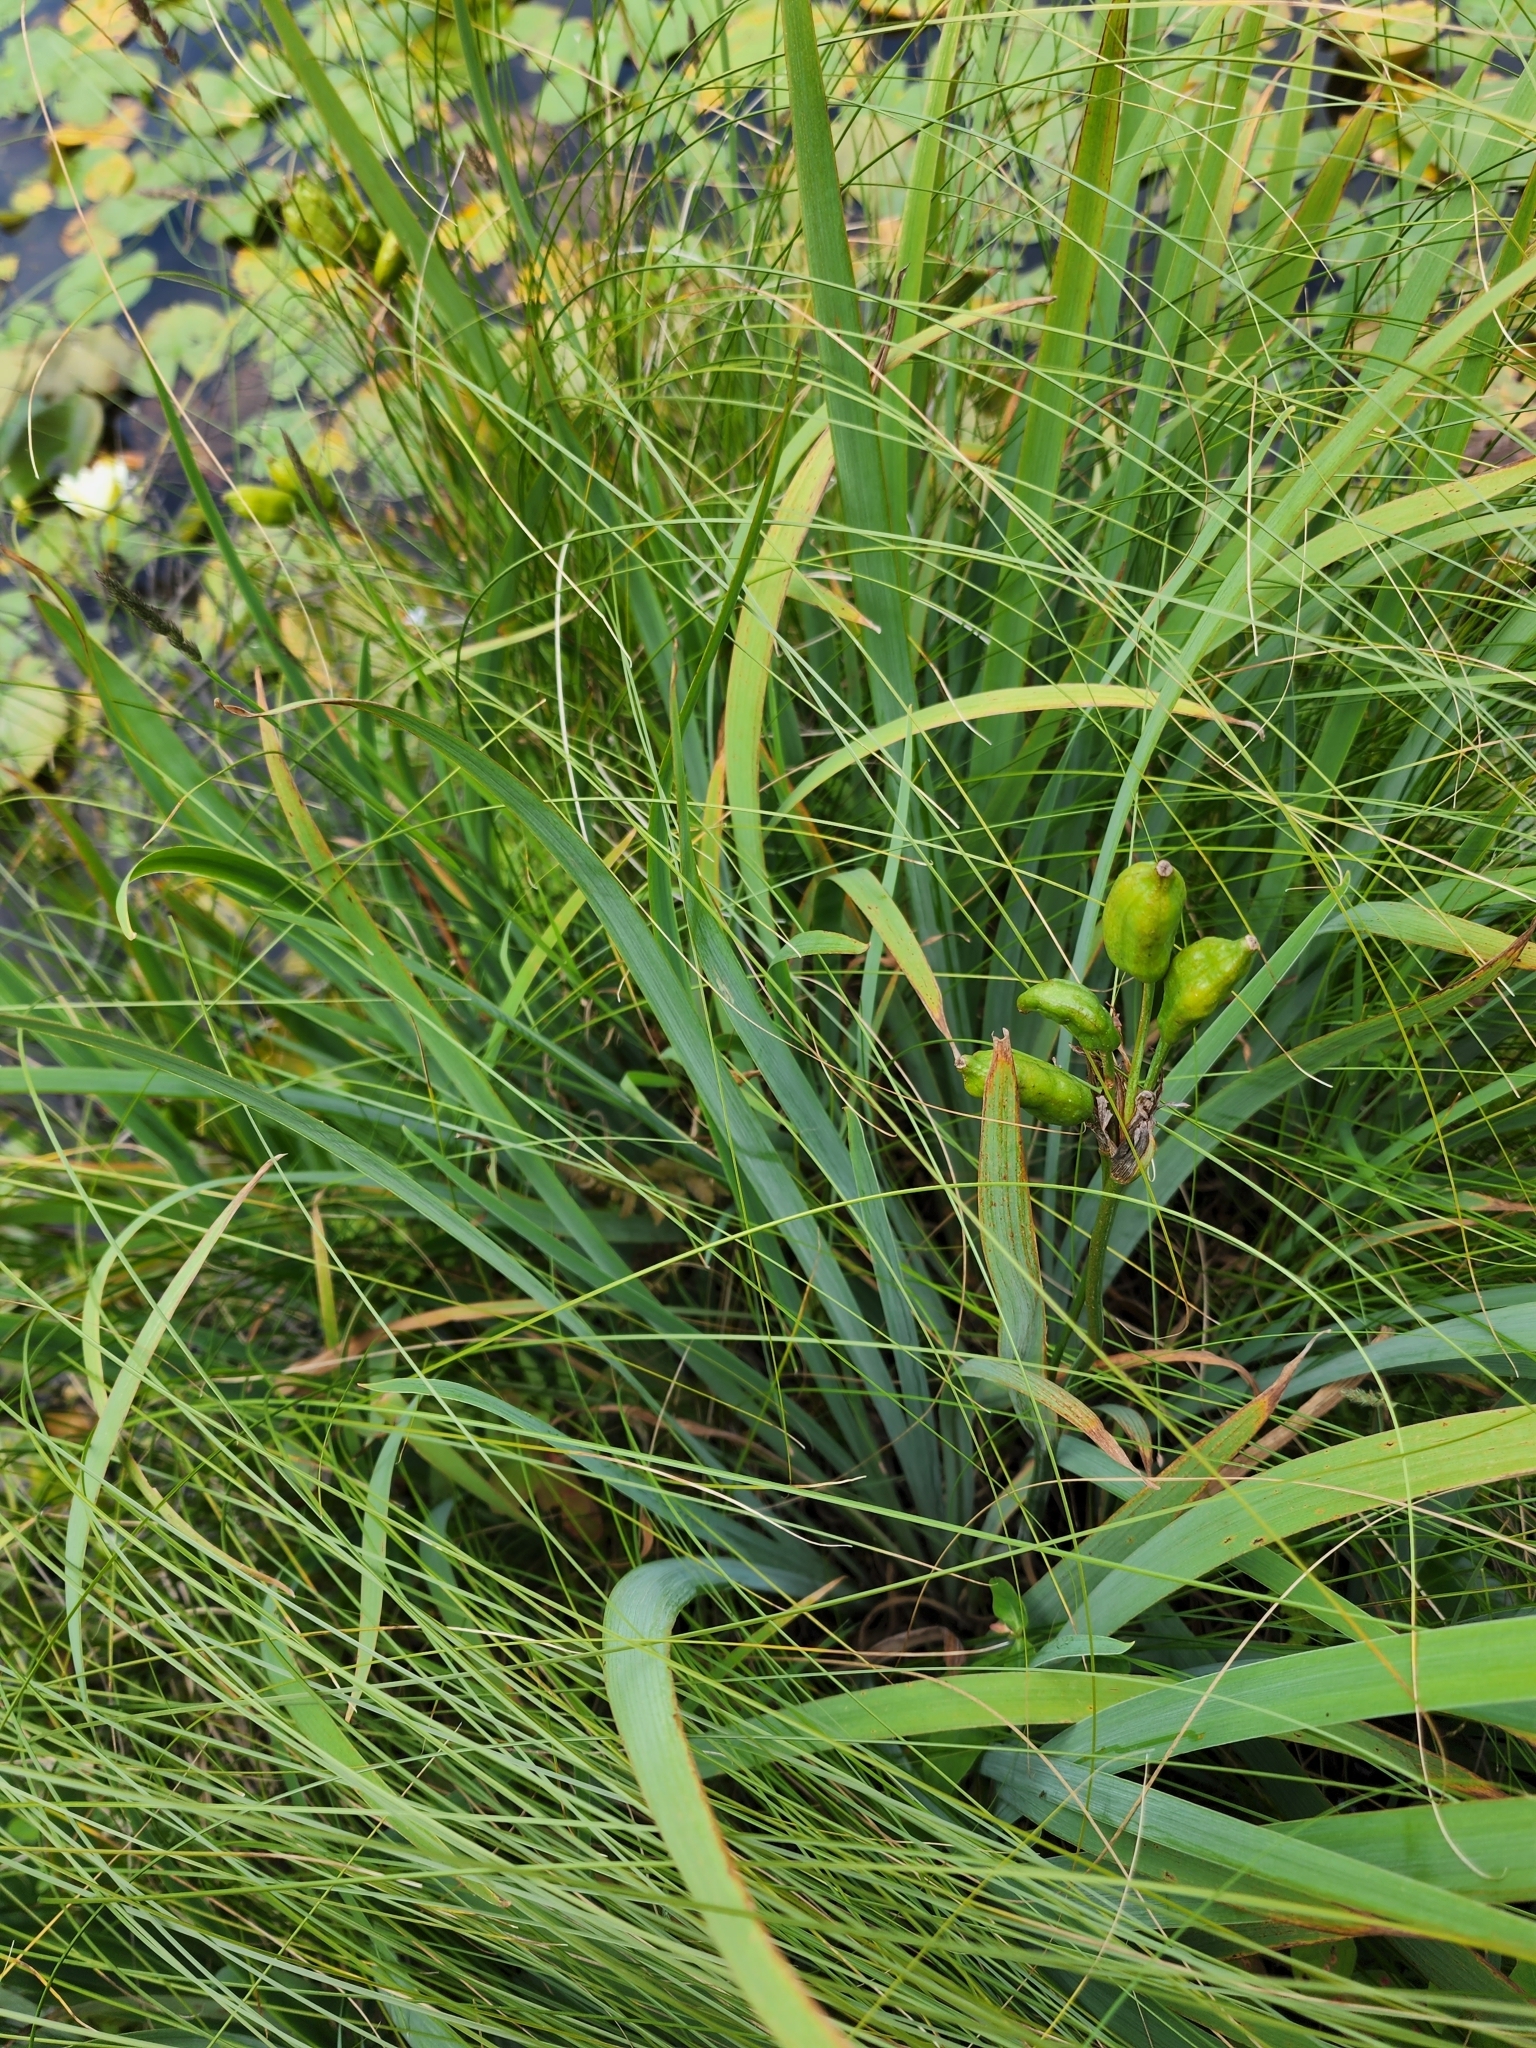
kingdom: Plantae
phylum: Tracheophyta
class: Liliopsida
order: Asparagales
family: Iridaceae
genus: Iris
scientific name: Iris versicolor
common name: Purple iris
